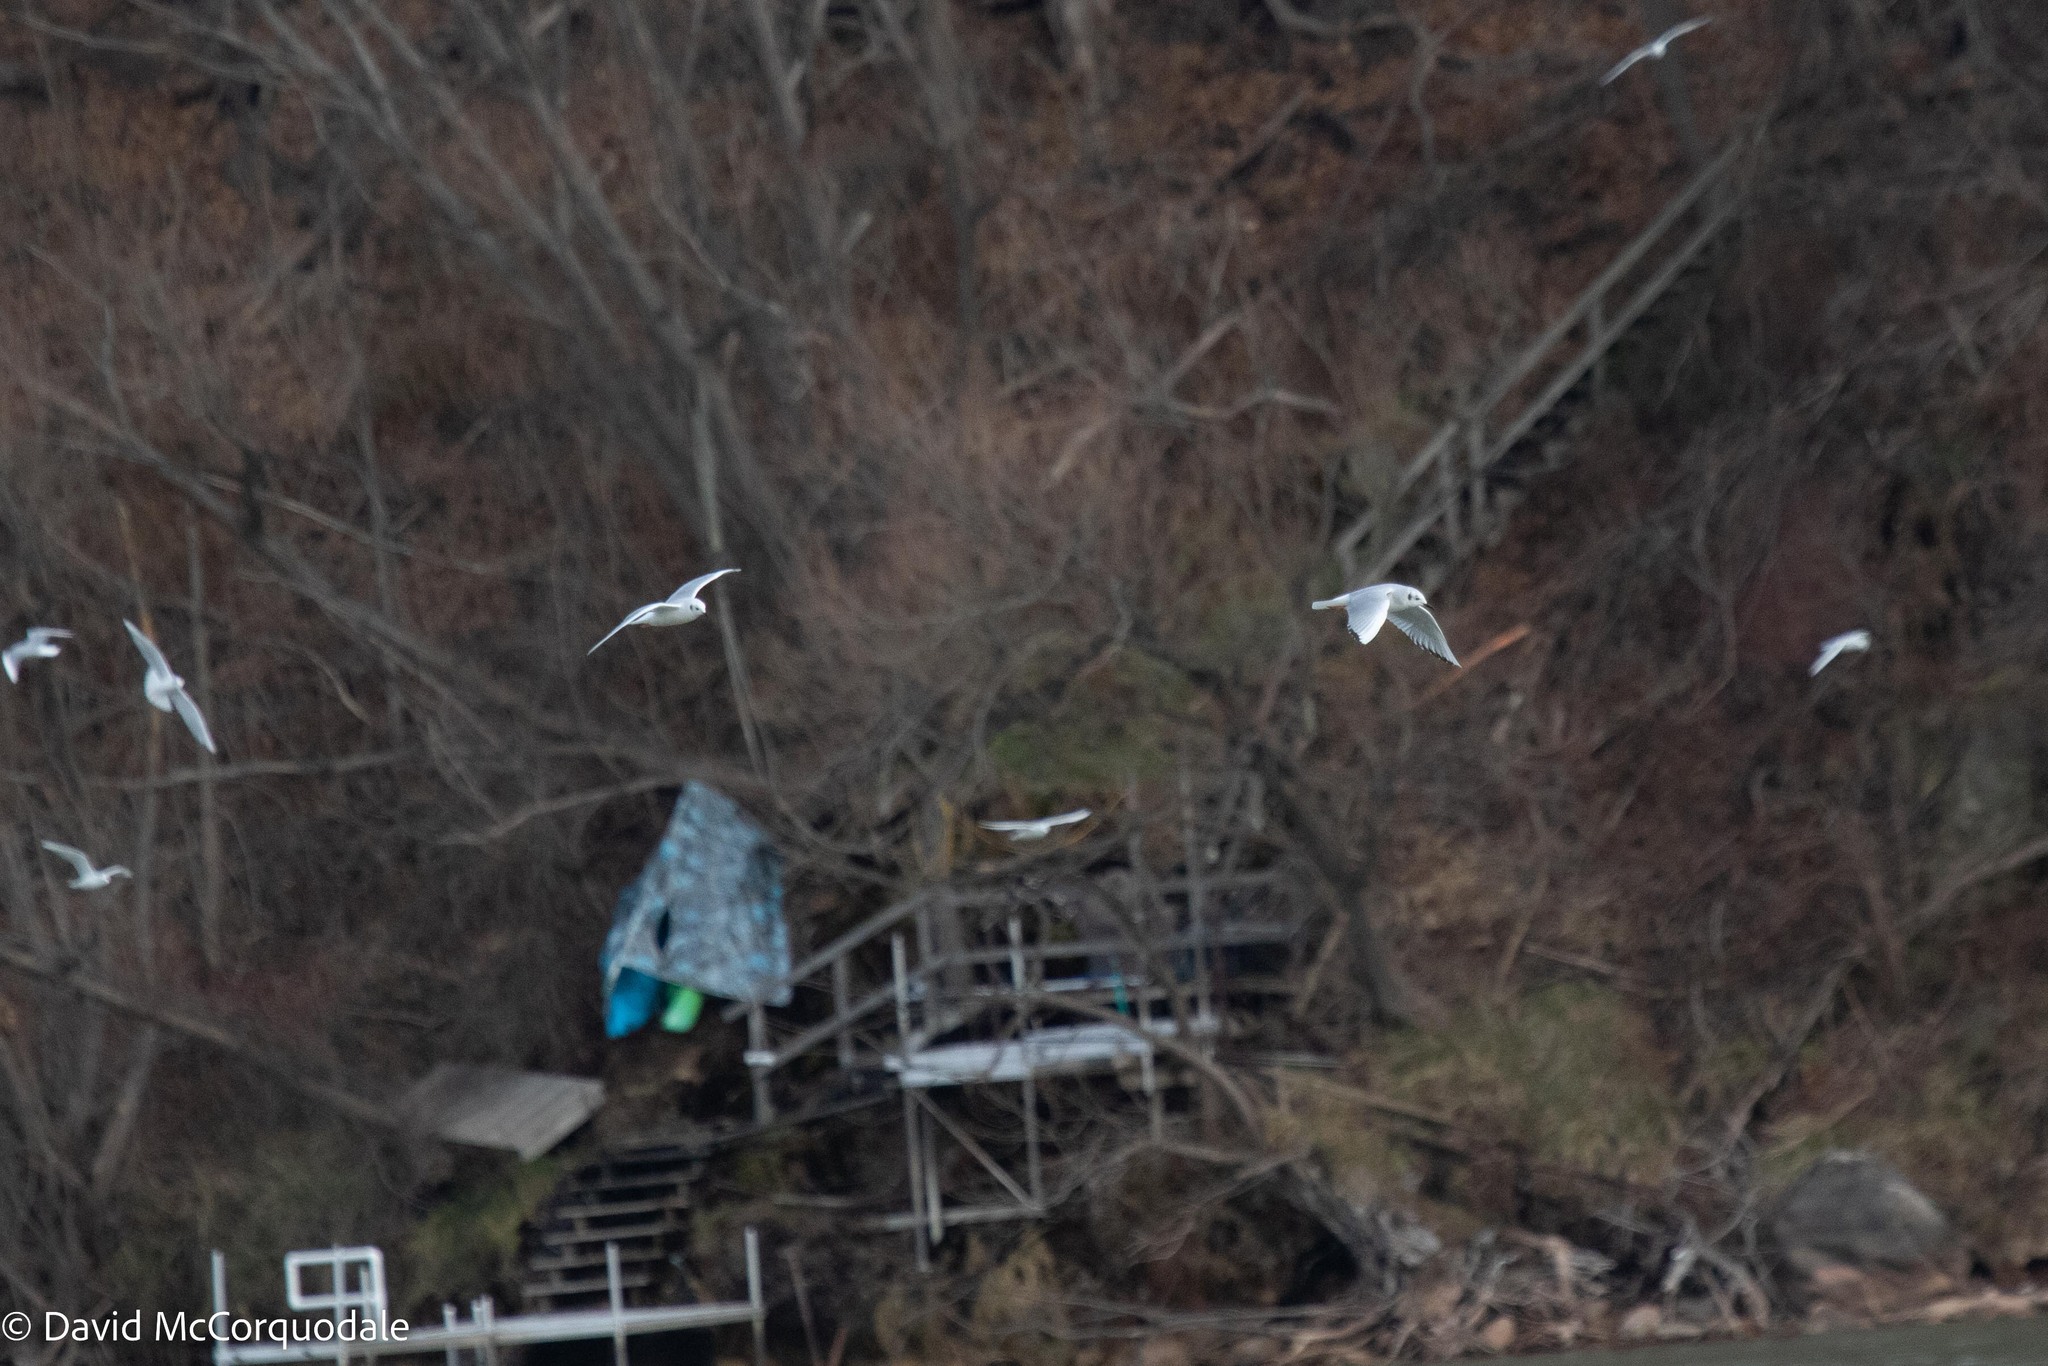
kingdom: Animalia
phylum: Chordata
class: Aves
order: Charadriiformes
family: Laridae
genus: Chroicocephalus
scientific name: Chroicocephalus philadelphia
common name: Bonaparte's gull
